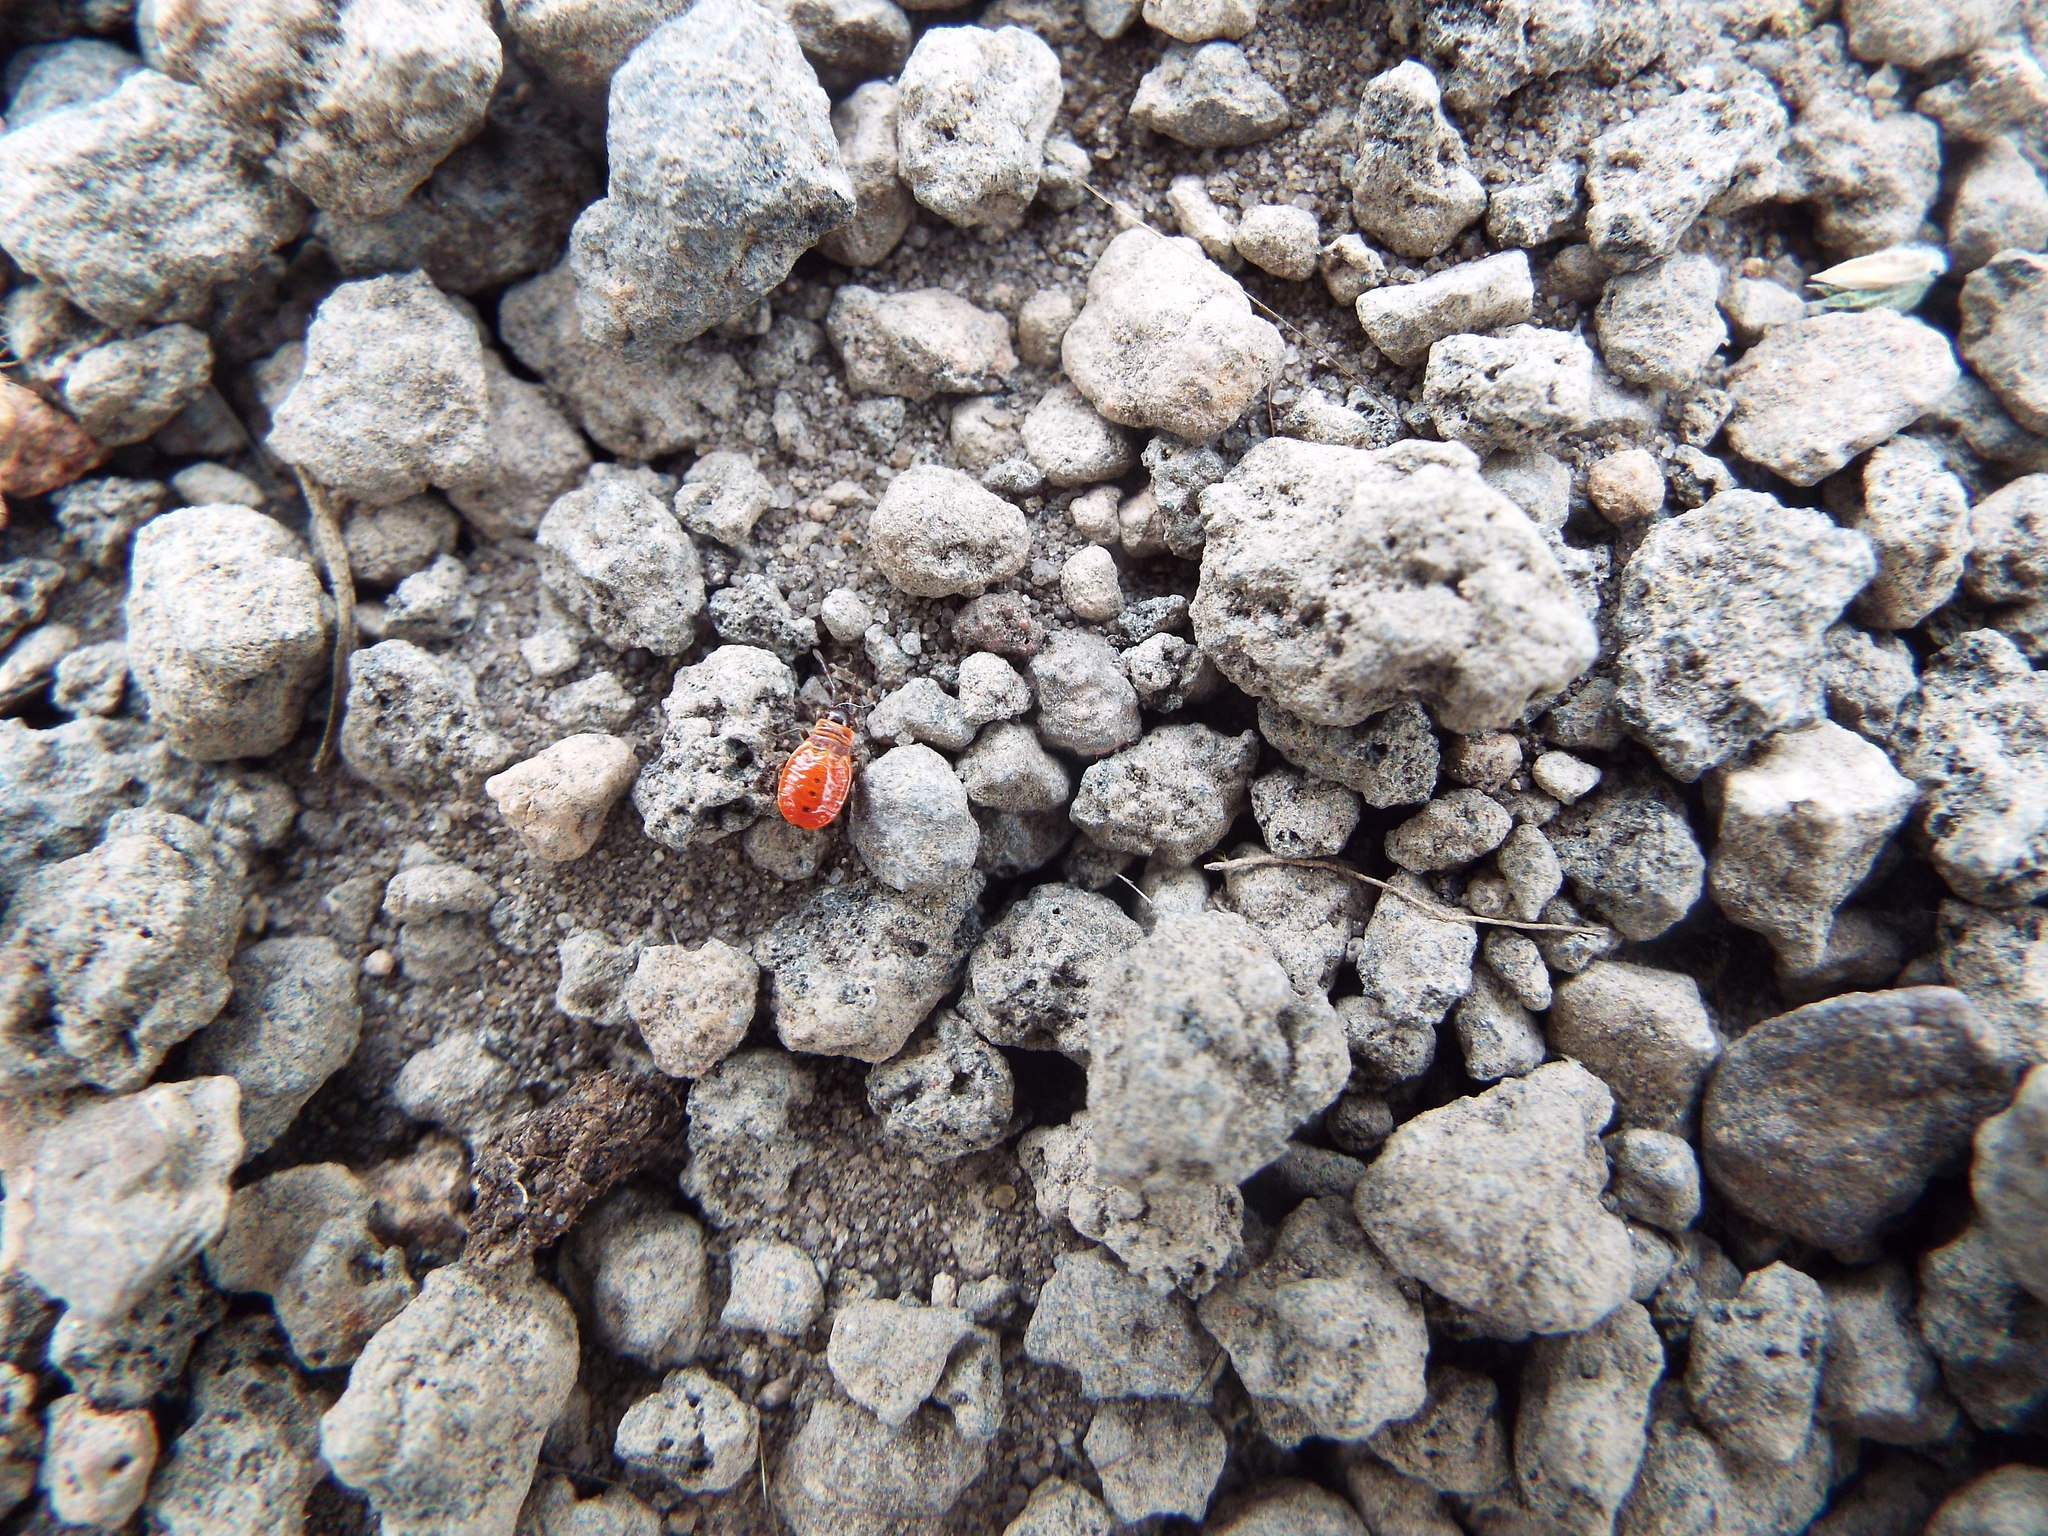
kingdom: Animalia
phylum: Arthropoda
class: Insecta
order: Hemiptera
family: Pyrrhocoridae
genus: Pyrrhocoris
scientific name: Pyrrhocoris apterus
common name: Firebug
